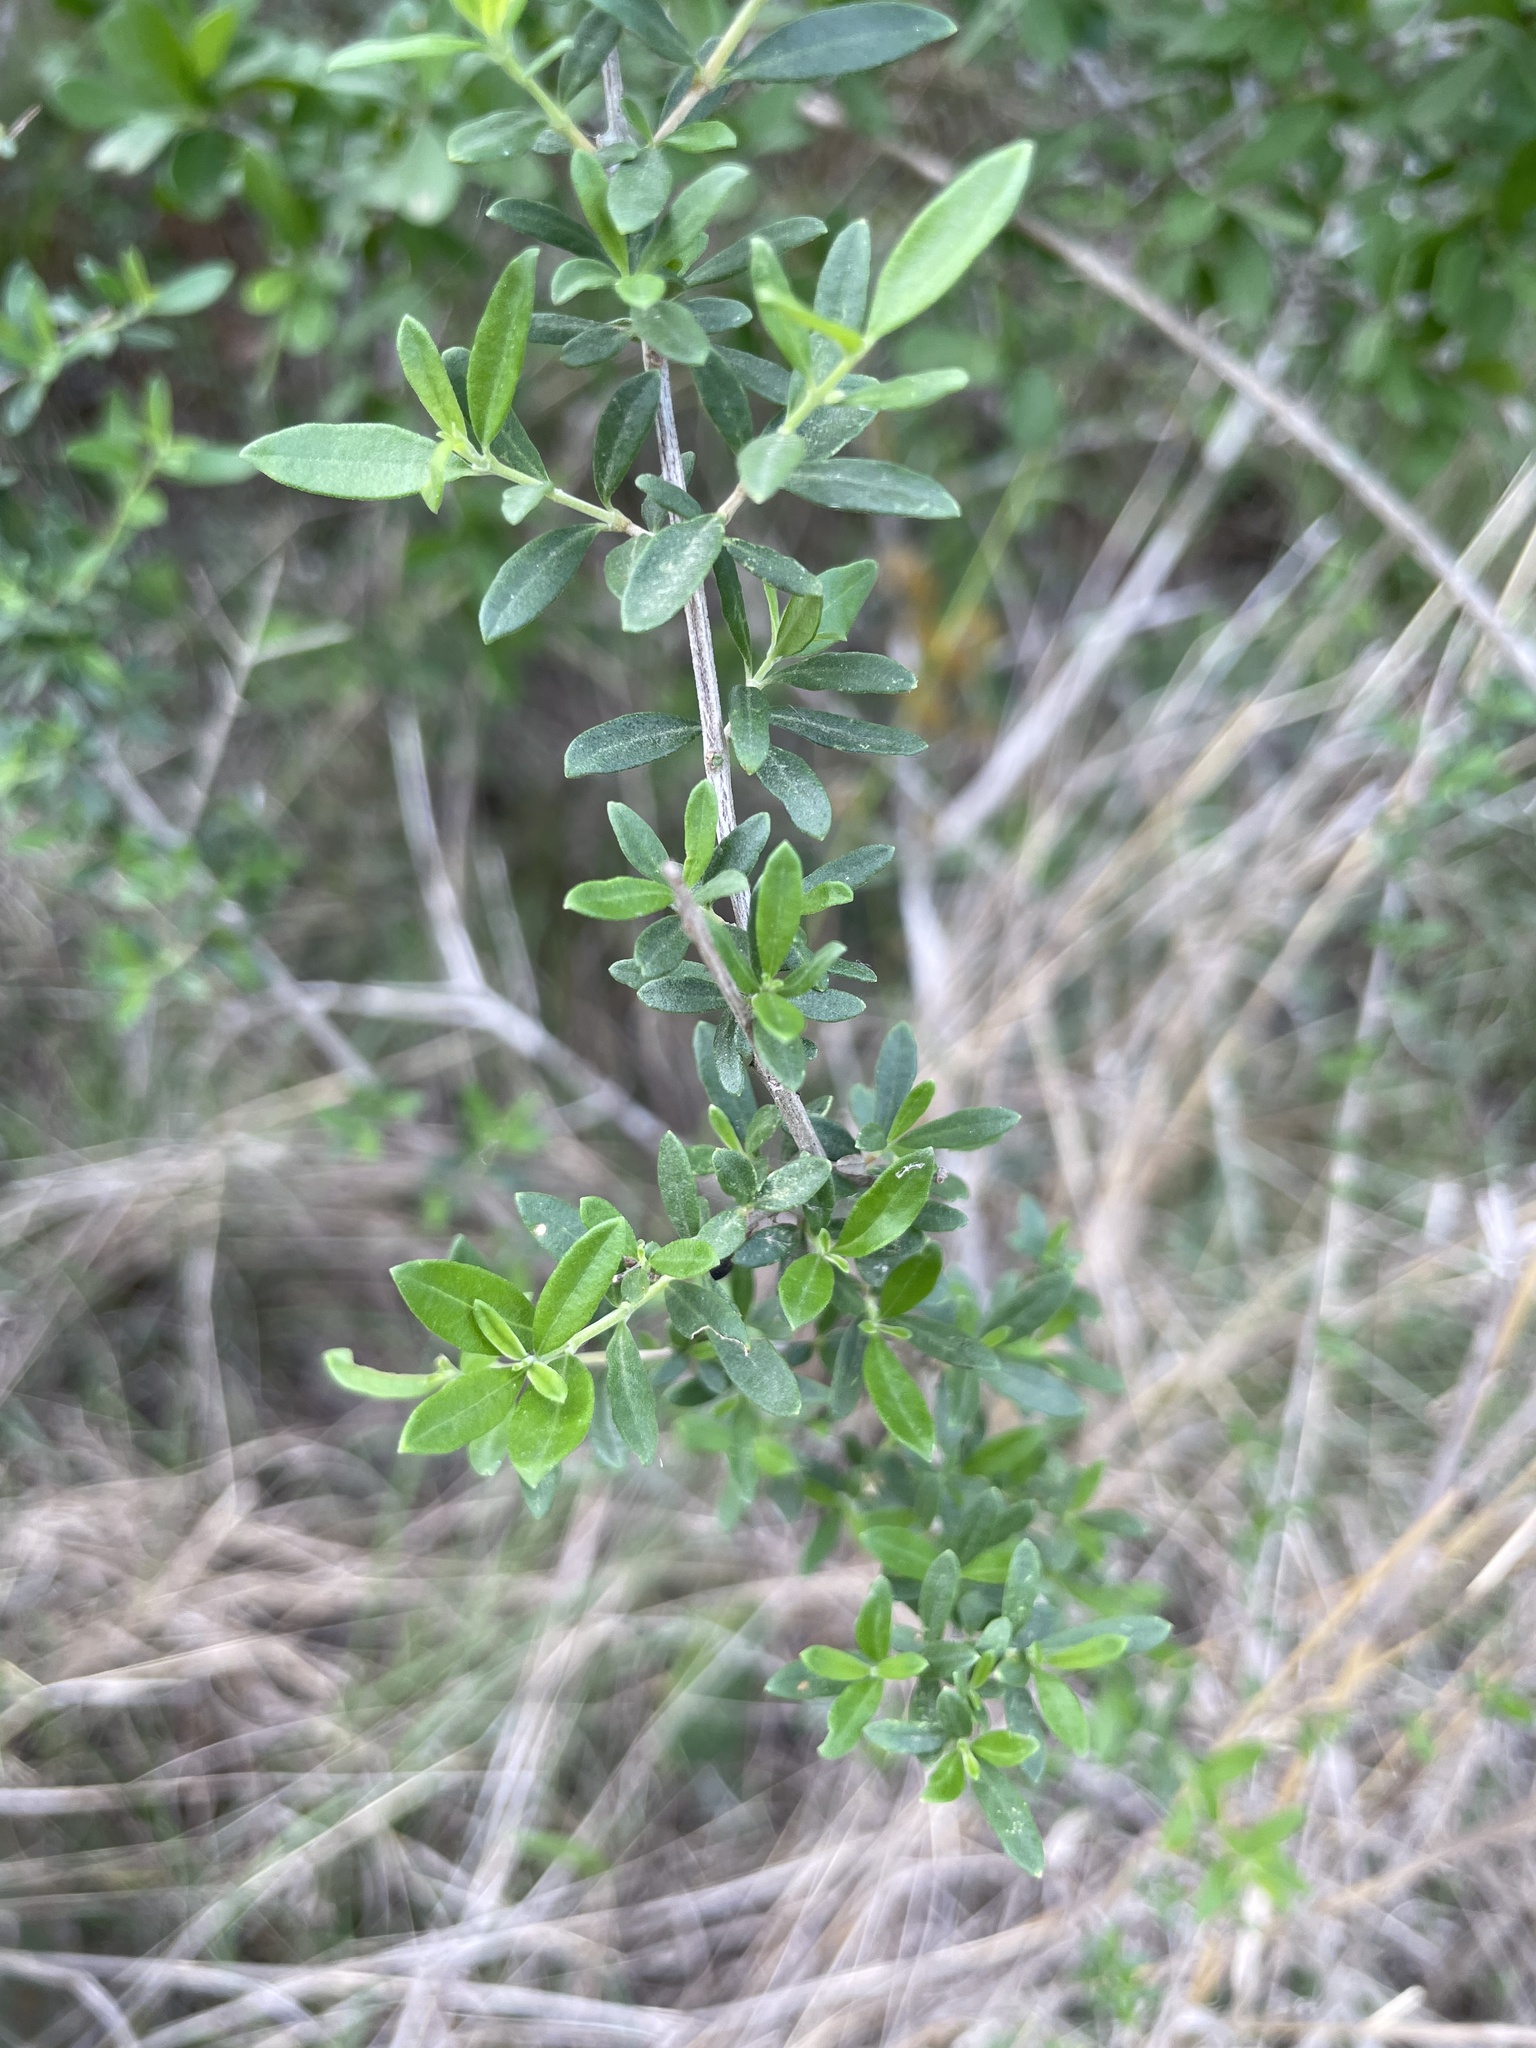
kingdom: Plantae
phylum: Tracheophyta
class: Magnoliopsida
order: Lamiales
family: Verbenaceae
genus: Aloysia
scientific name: Aloysia gratissima
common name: Common bee-brush
